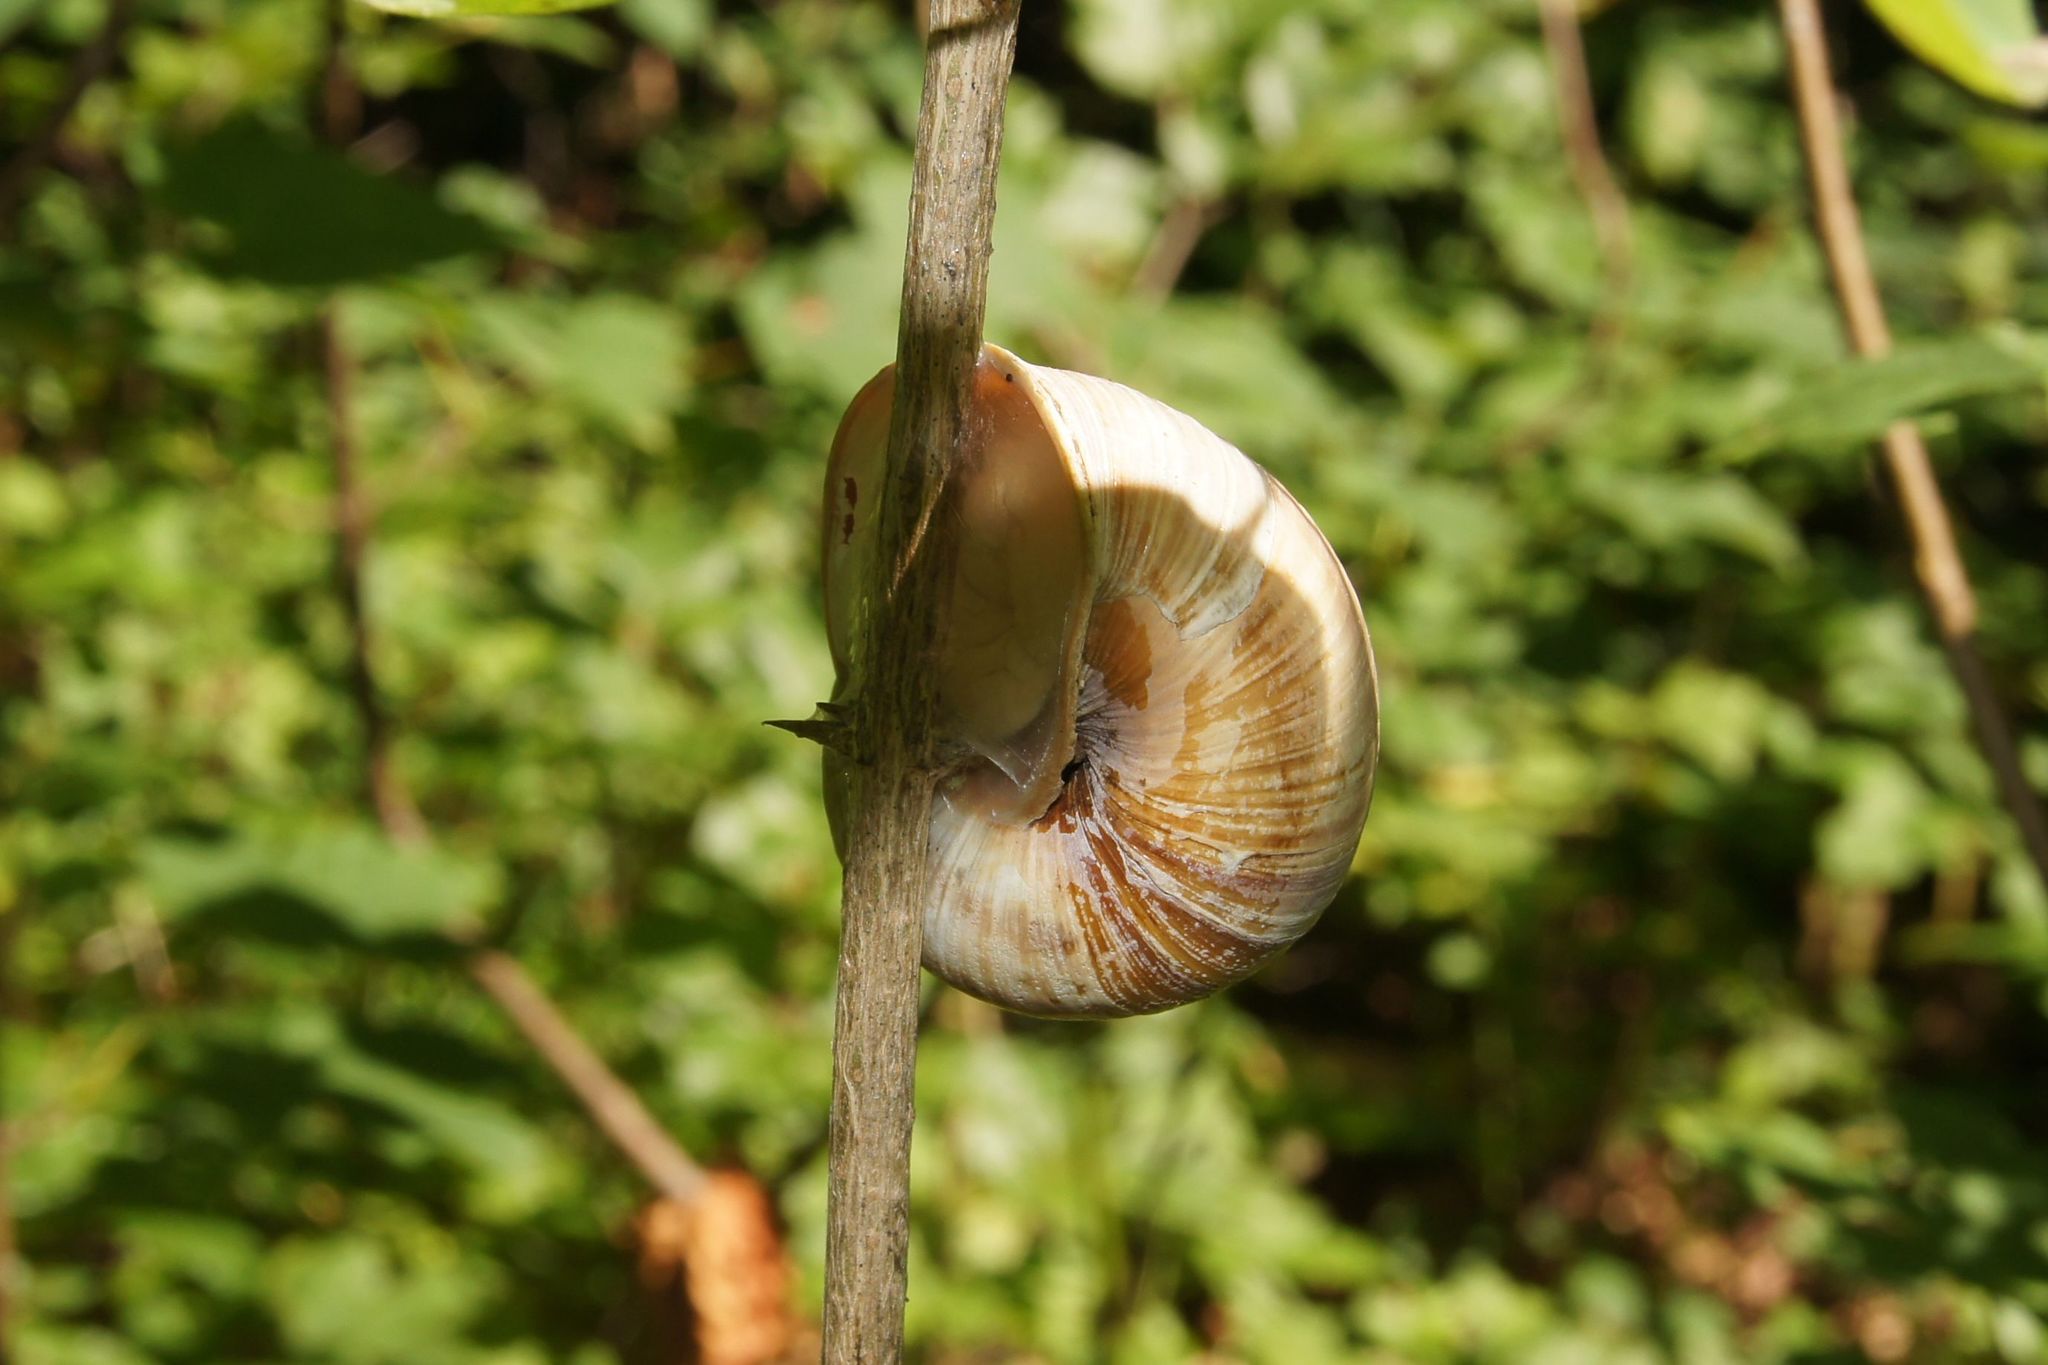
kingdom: Animalia
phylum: Mollusca
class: Gastropoda
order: Stylommatophora
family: Helicidae
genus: Helix
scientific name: Helix pomatia
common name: Roman snail
